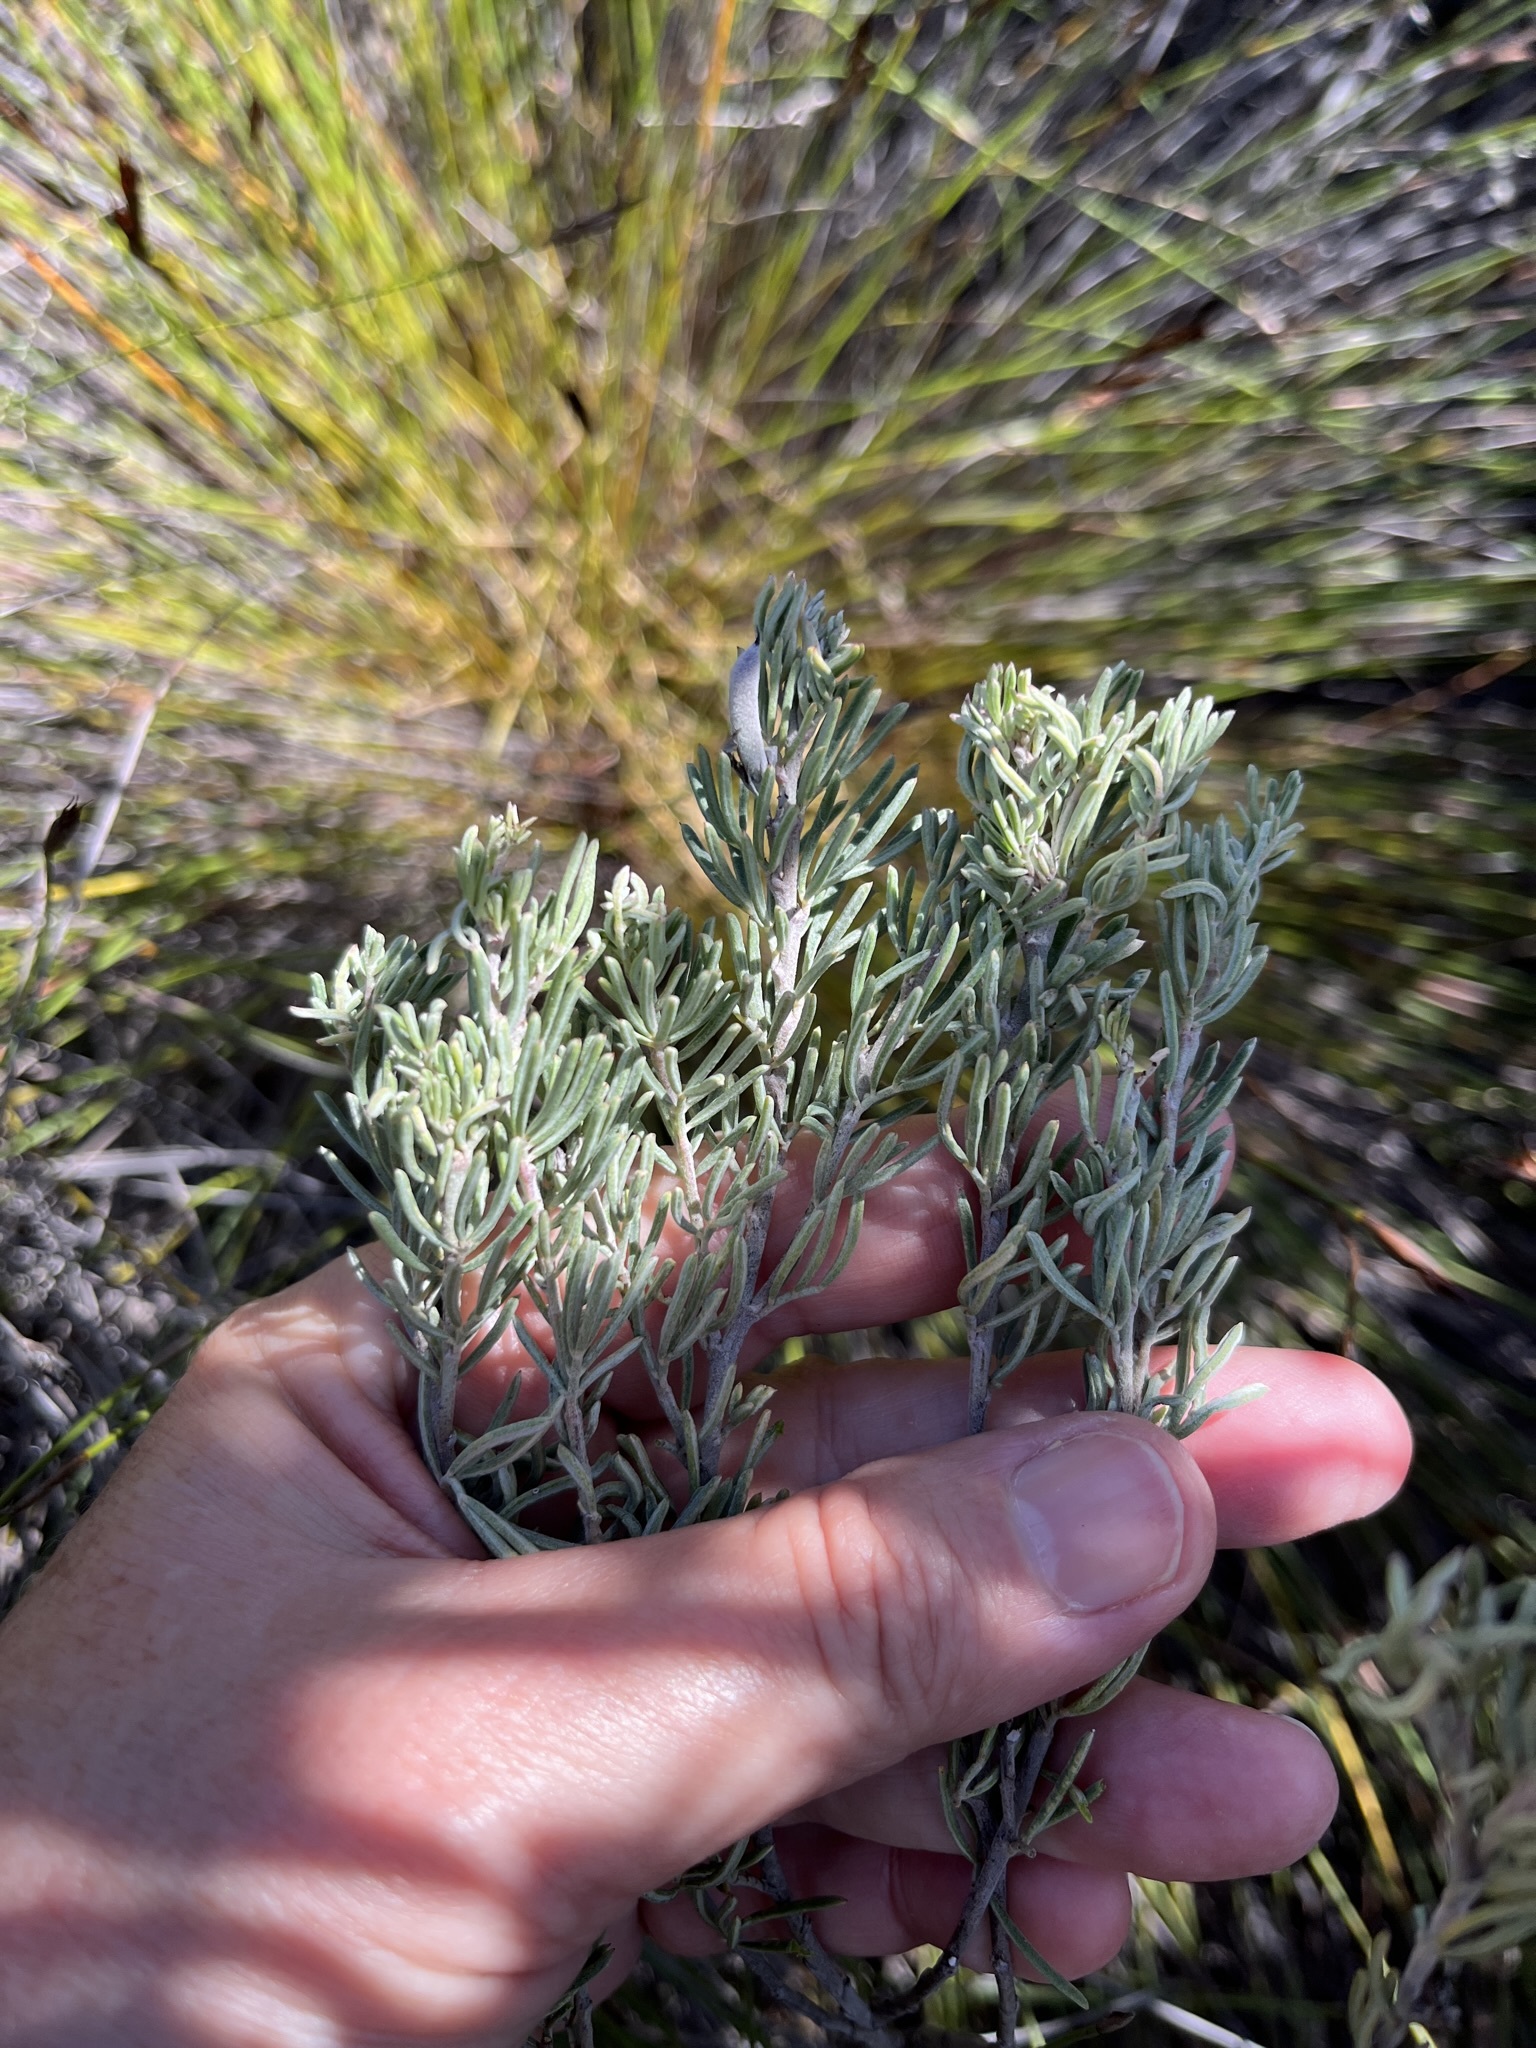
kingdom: Plantae
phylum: Tracheophyta
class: Magnoliopsida
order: Fabales
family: Fabaceae
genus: Indigofera
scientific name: Indigofera
